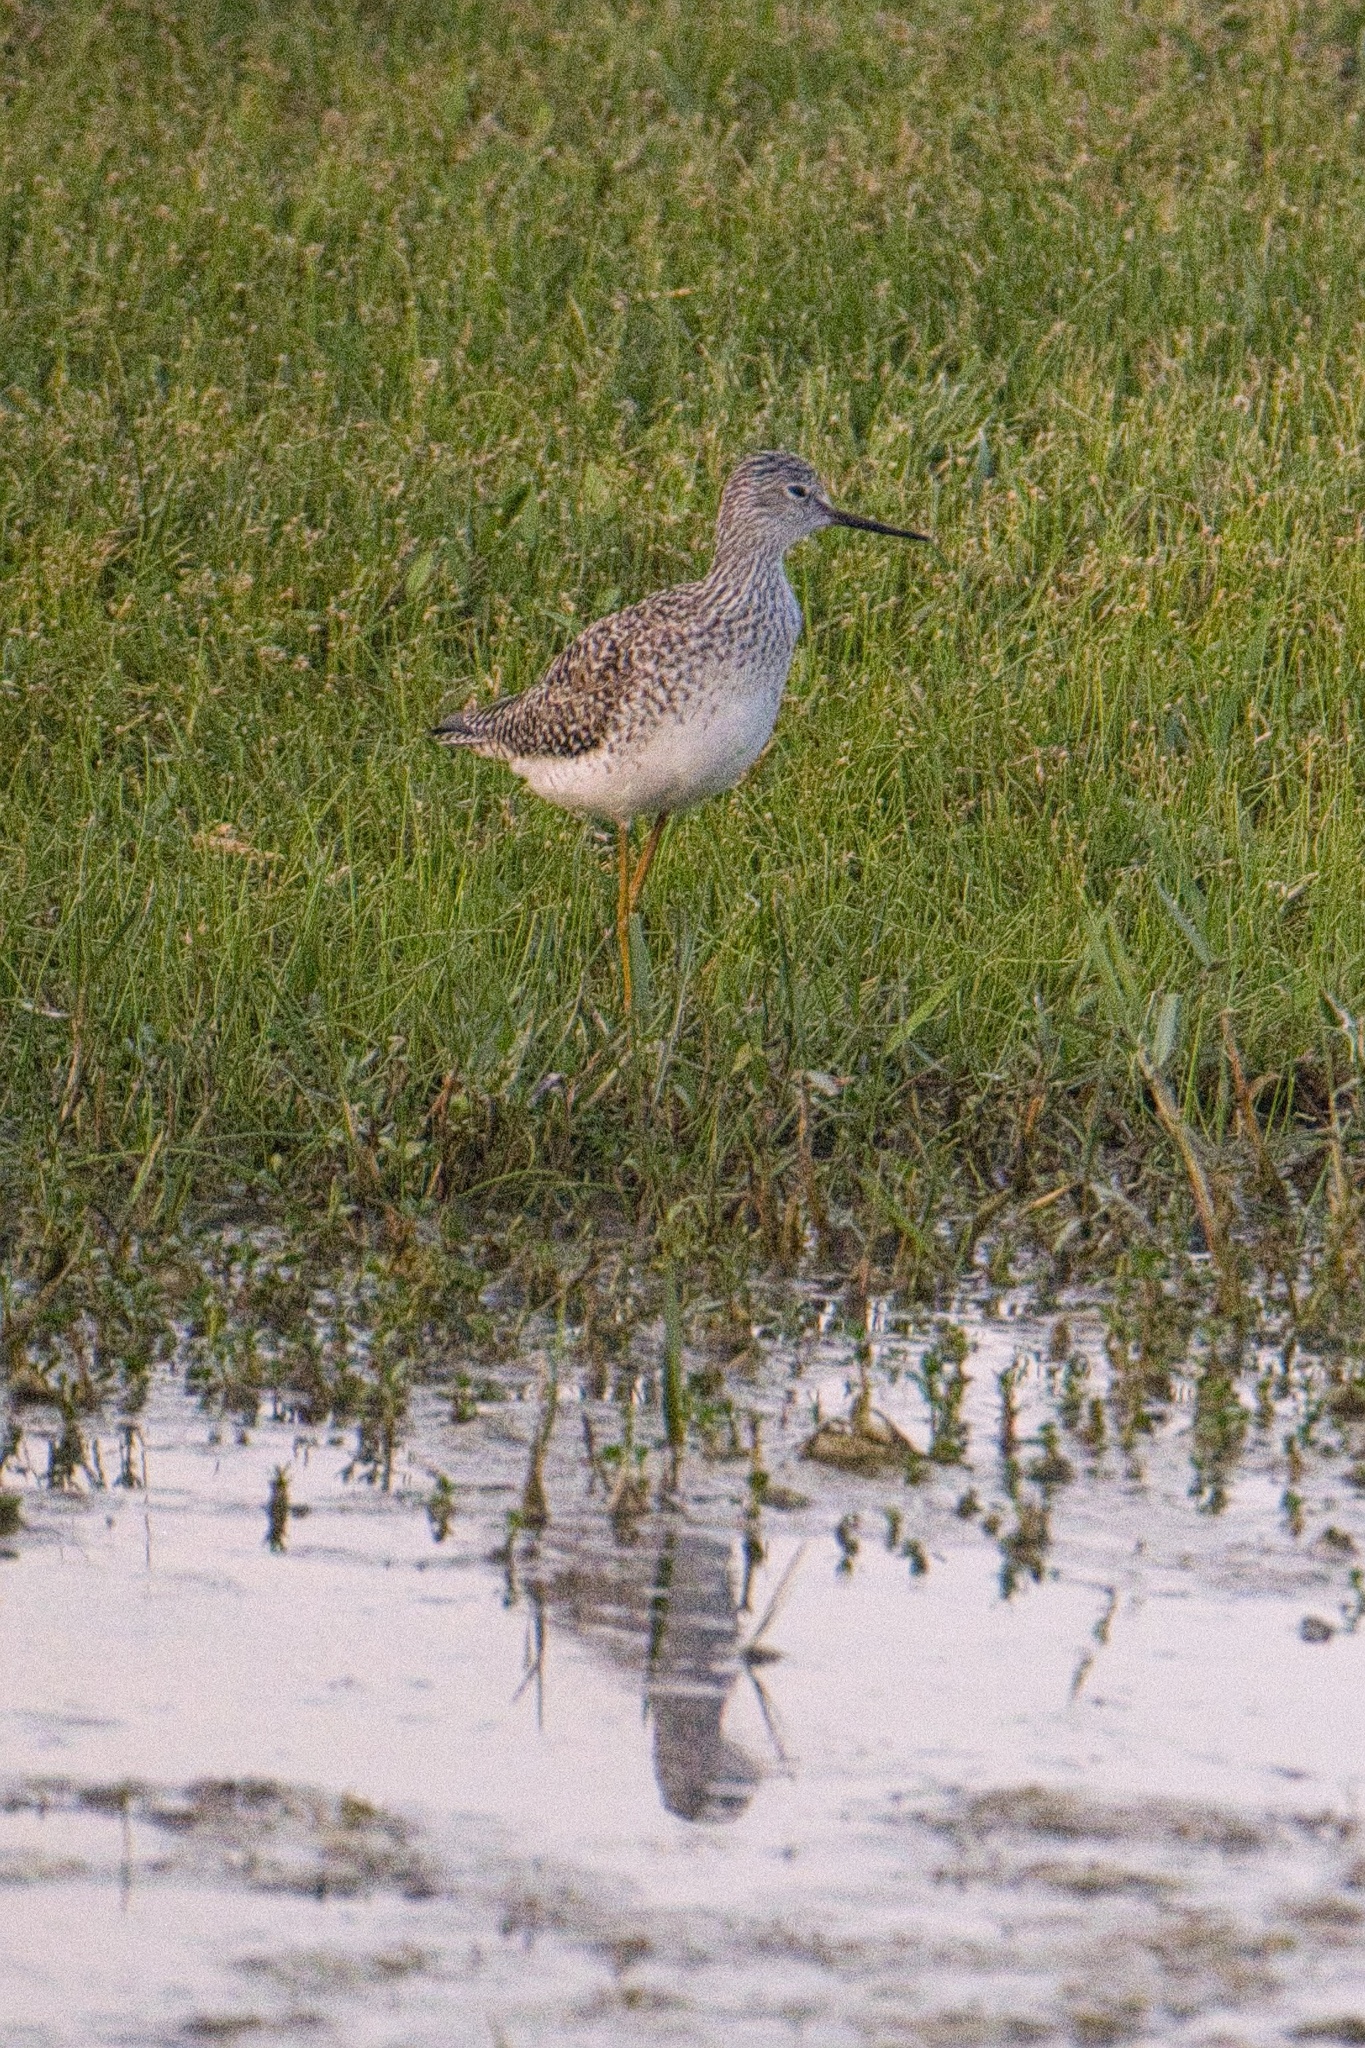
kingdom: Animalia
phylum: Chordata
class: Aves
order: Charadriiformes
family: Scolopacidae
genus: Tringa
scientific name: Tringa flavipes
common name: Lesser yellowlegs
